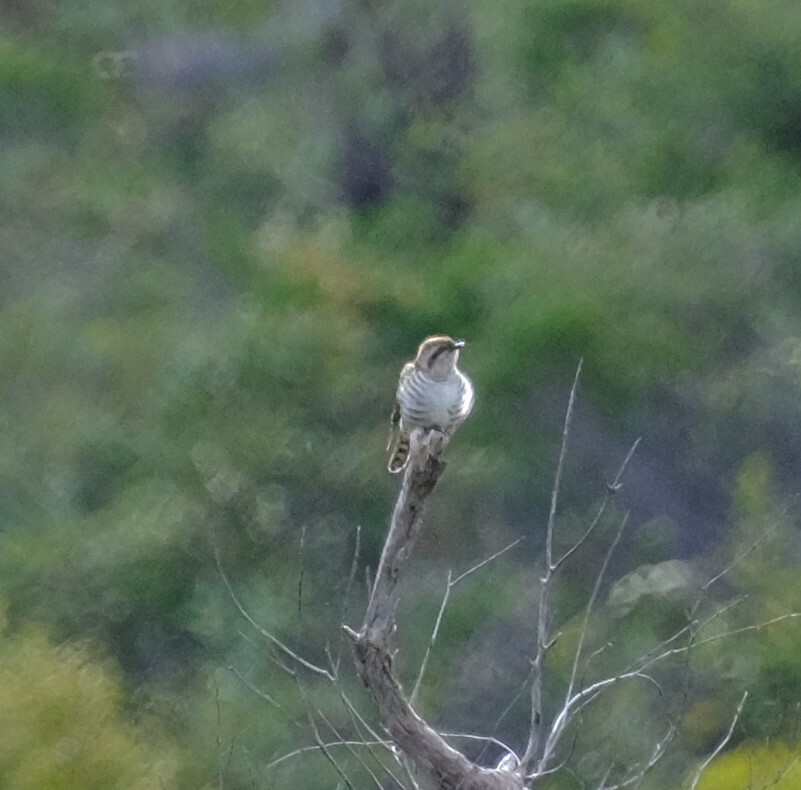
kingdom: Animalia
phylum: Chordata
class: Aves
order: Cuculiformes
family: Cuculidae
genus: Chrysococcyx
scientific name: Chrysococcyx basalis
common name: Horsfield's bronze cuckoo
